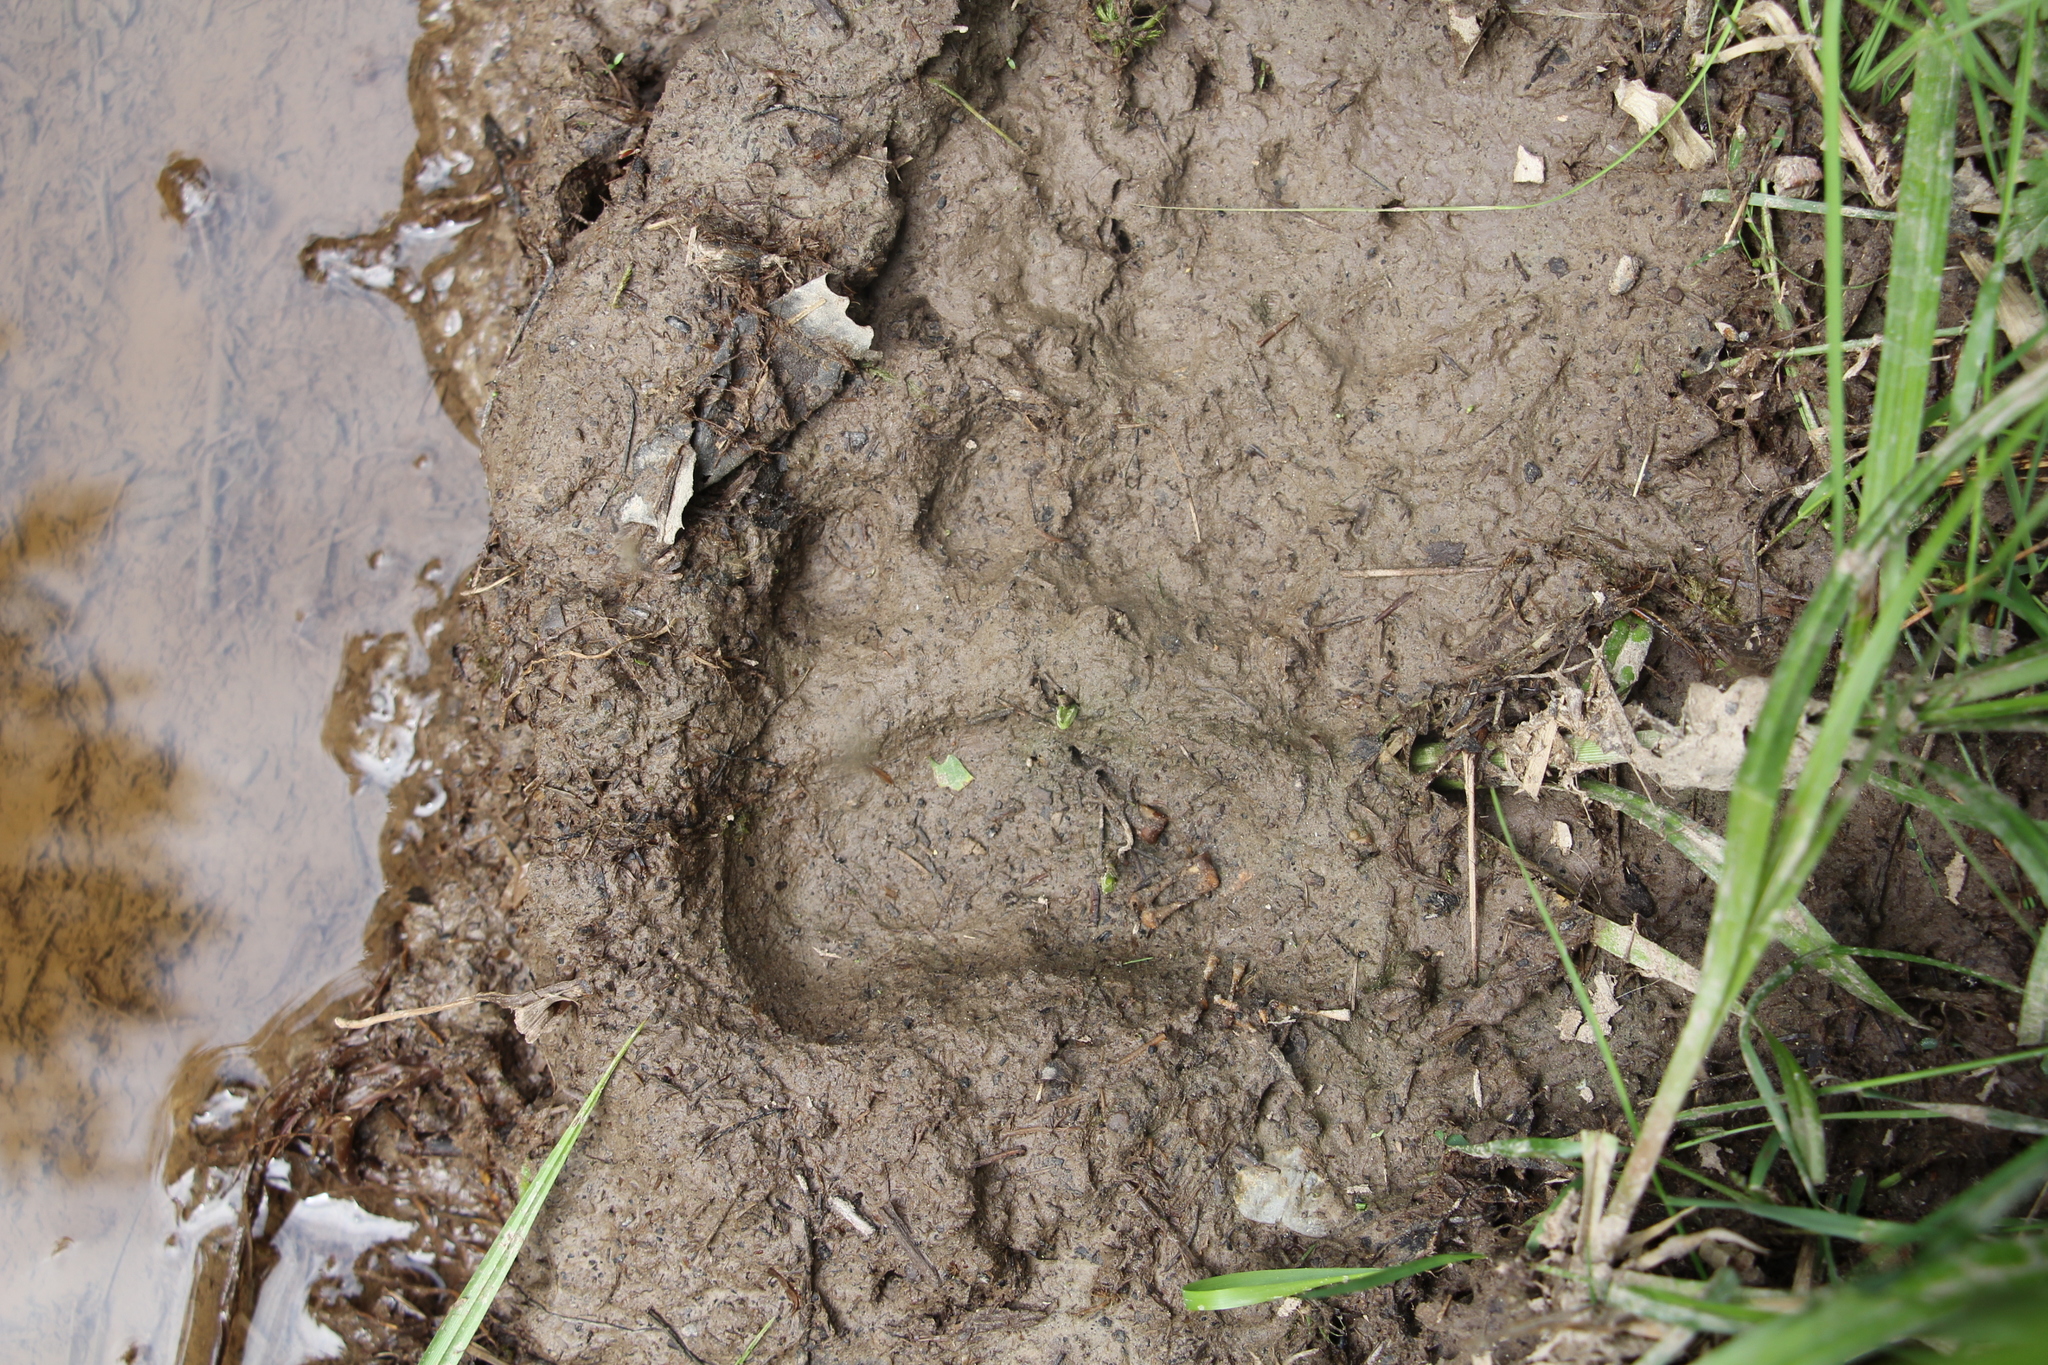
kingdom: Animalia
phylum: Chordata
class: Mammalia
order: Carnivora
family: Ursidae
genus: Ursus
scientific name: Ursus arctos
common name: Brown bear
